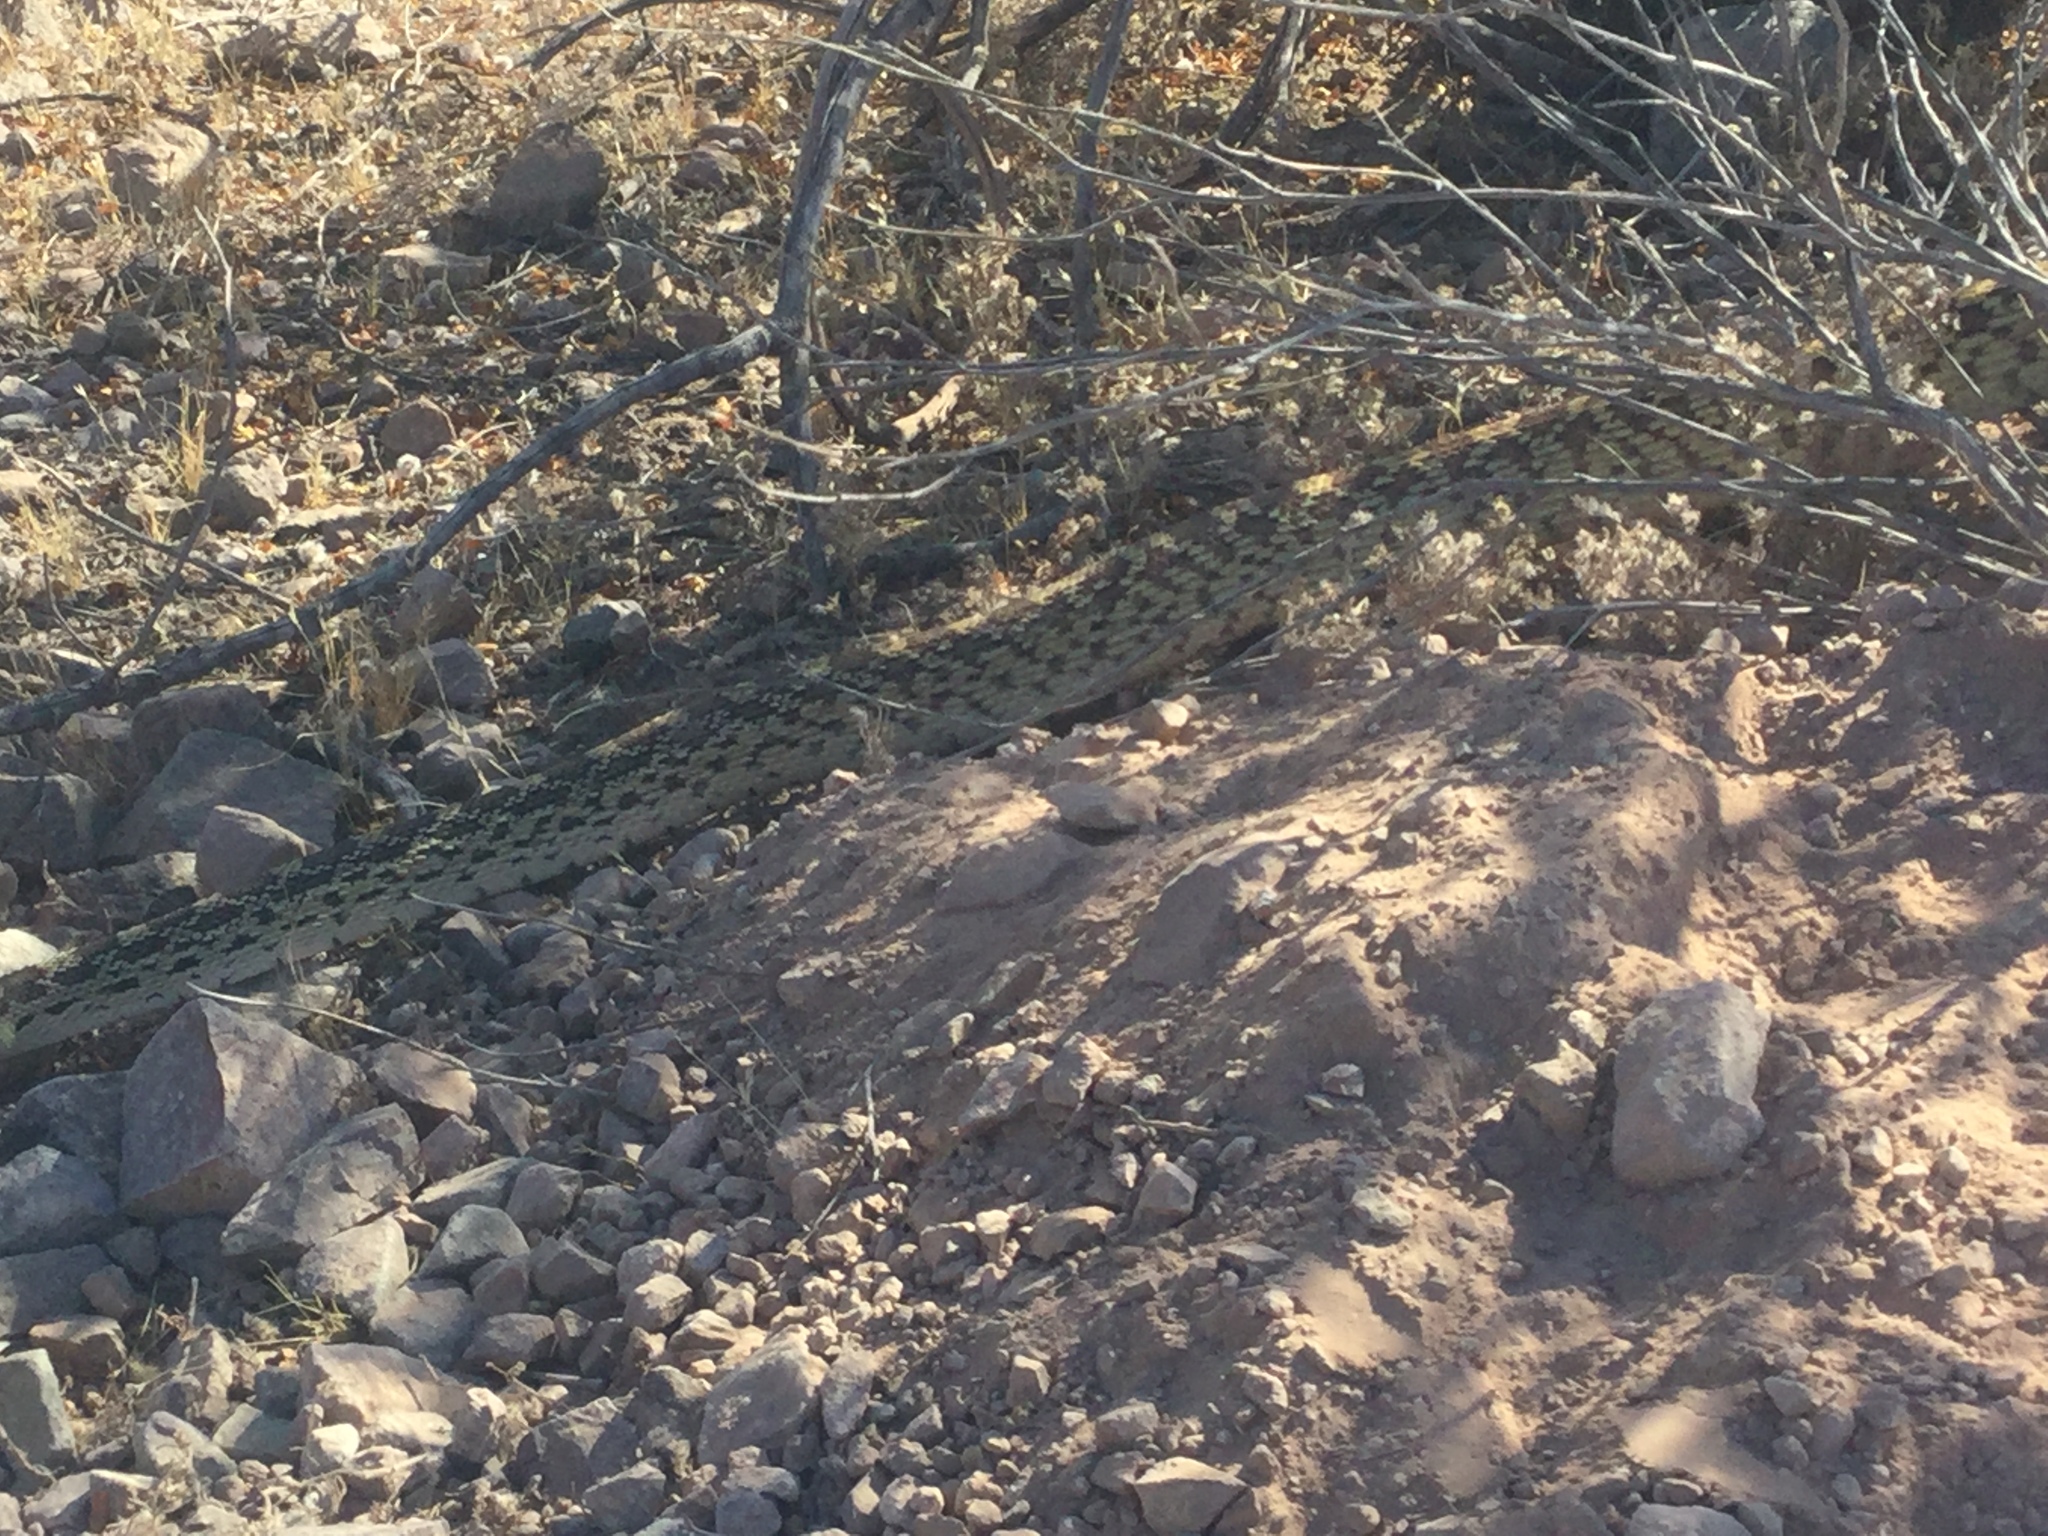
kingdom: Animalia
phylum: Chordata
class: Squamata
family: Colubridae
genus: Pituophis
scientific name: Pituophis catenifer
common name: Gopher snake
